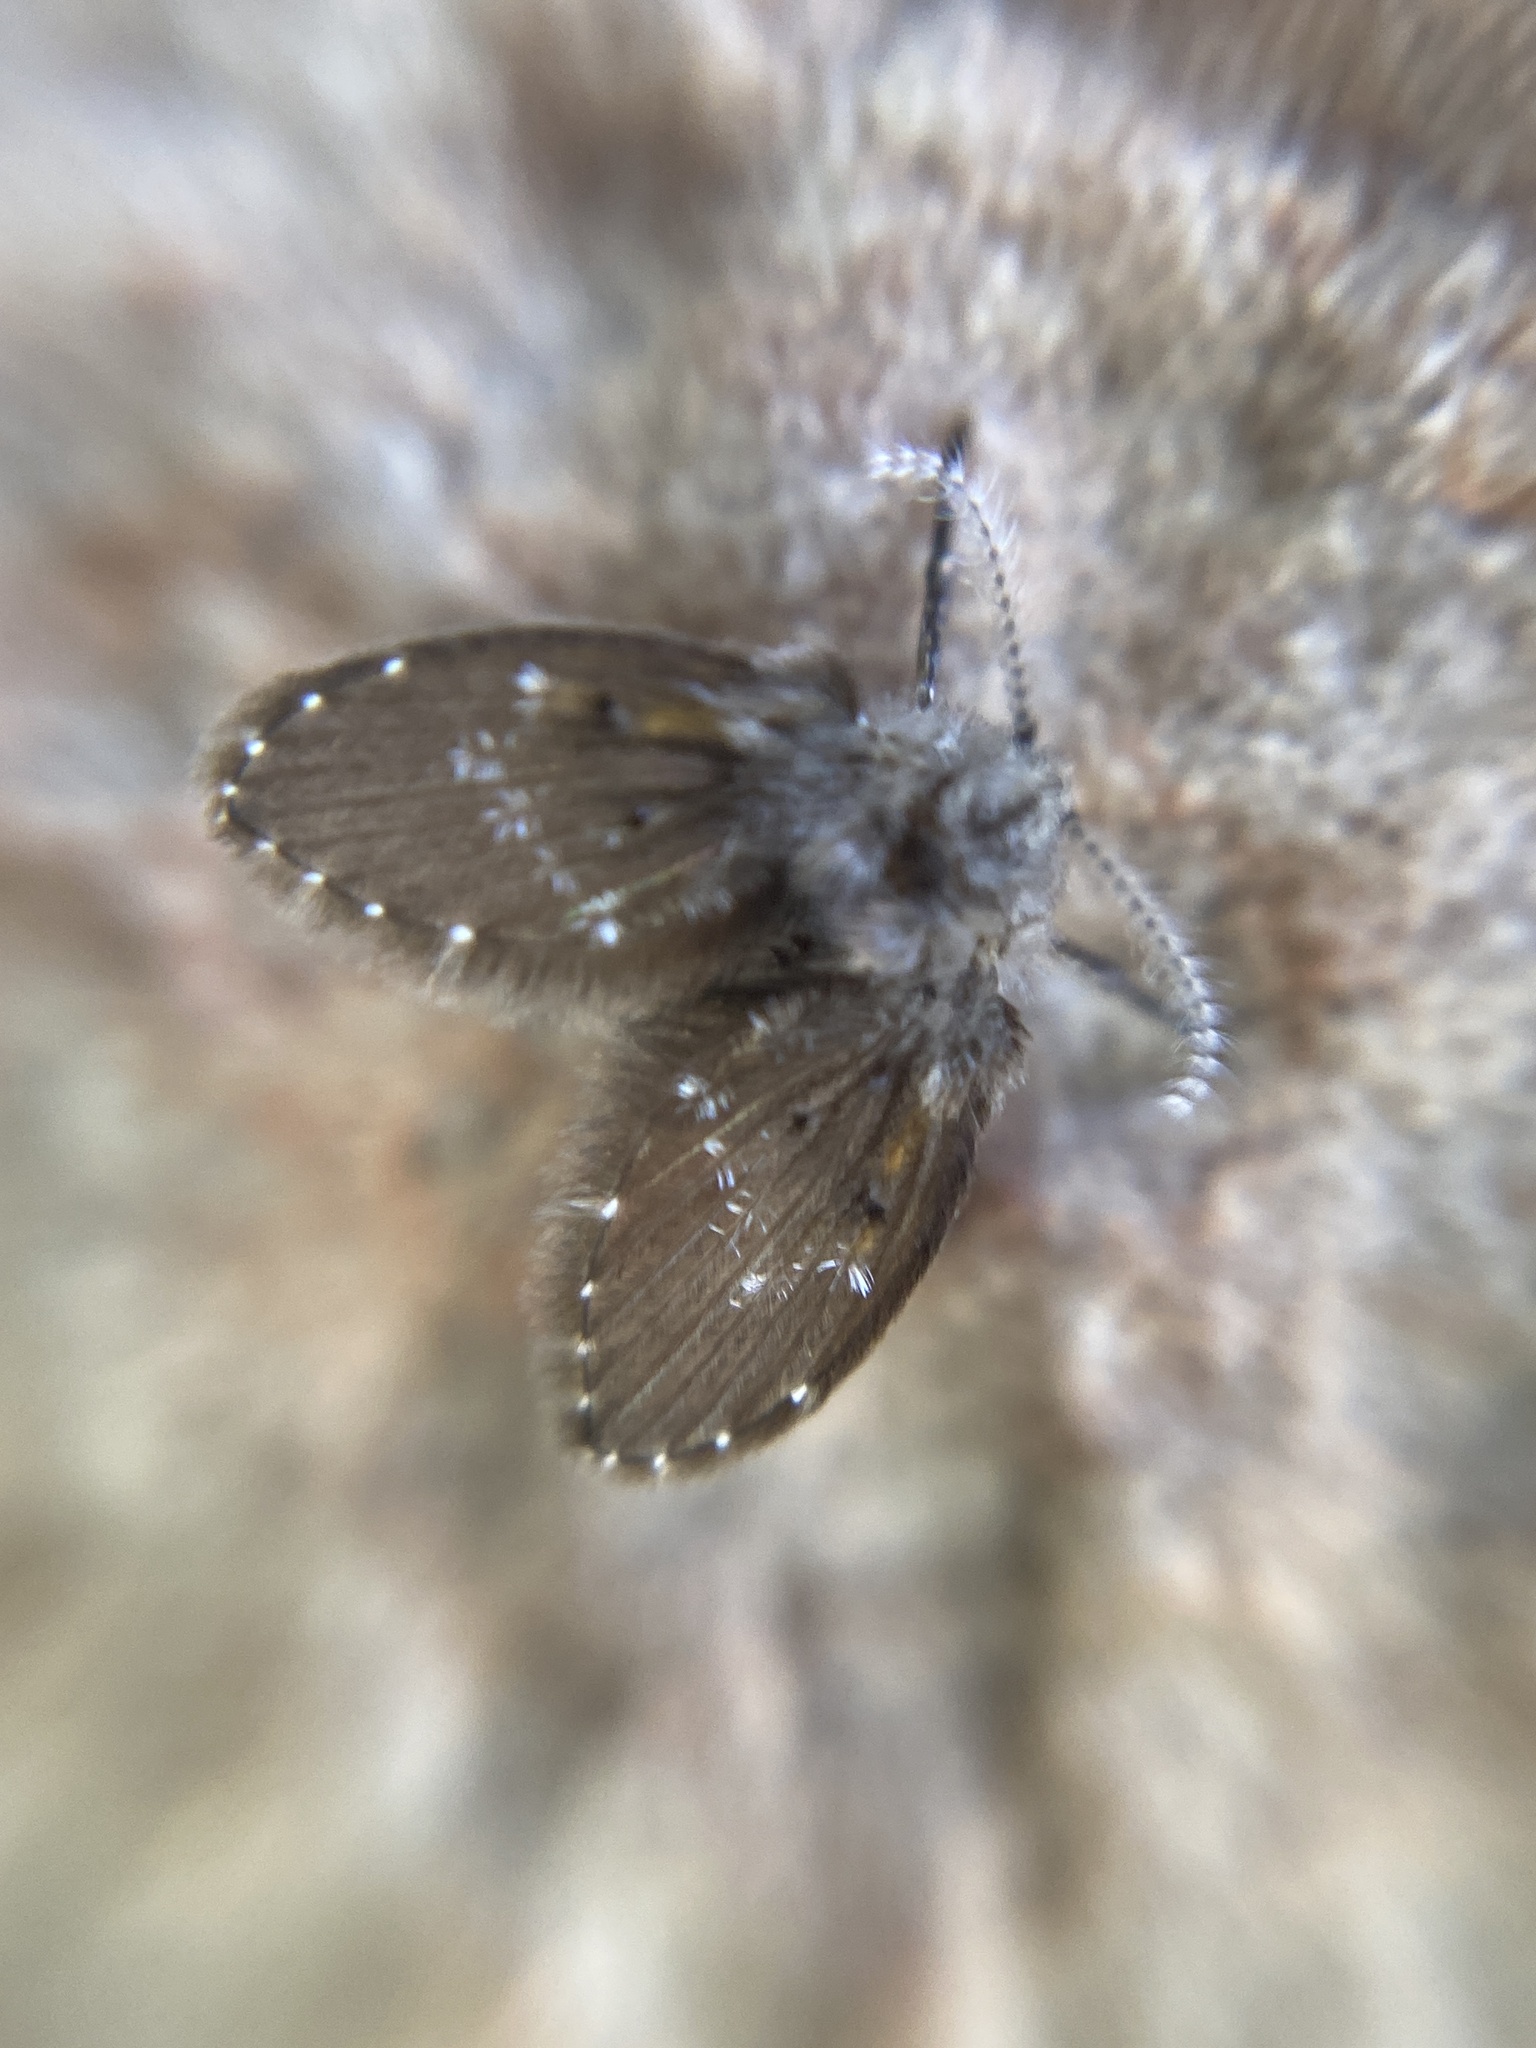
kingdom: Animalia
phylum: Arthropoda
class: Insecta
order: Diptera
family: Psychodidae
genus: Clogmia
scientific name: Clogmia albipunctatus
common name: White-spotted moth fly
